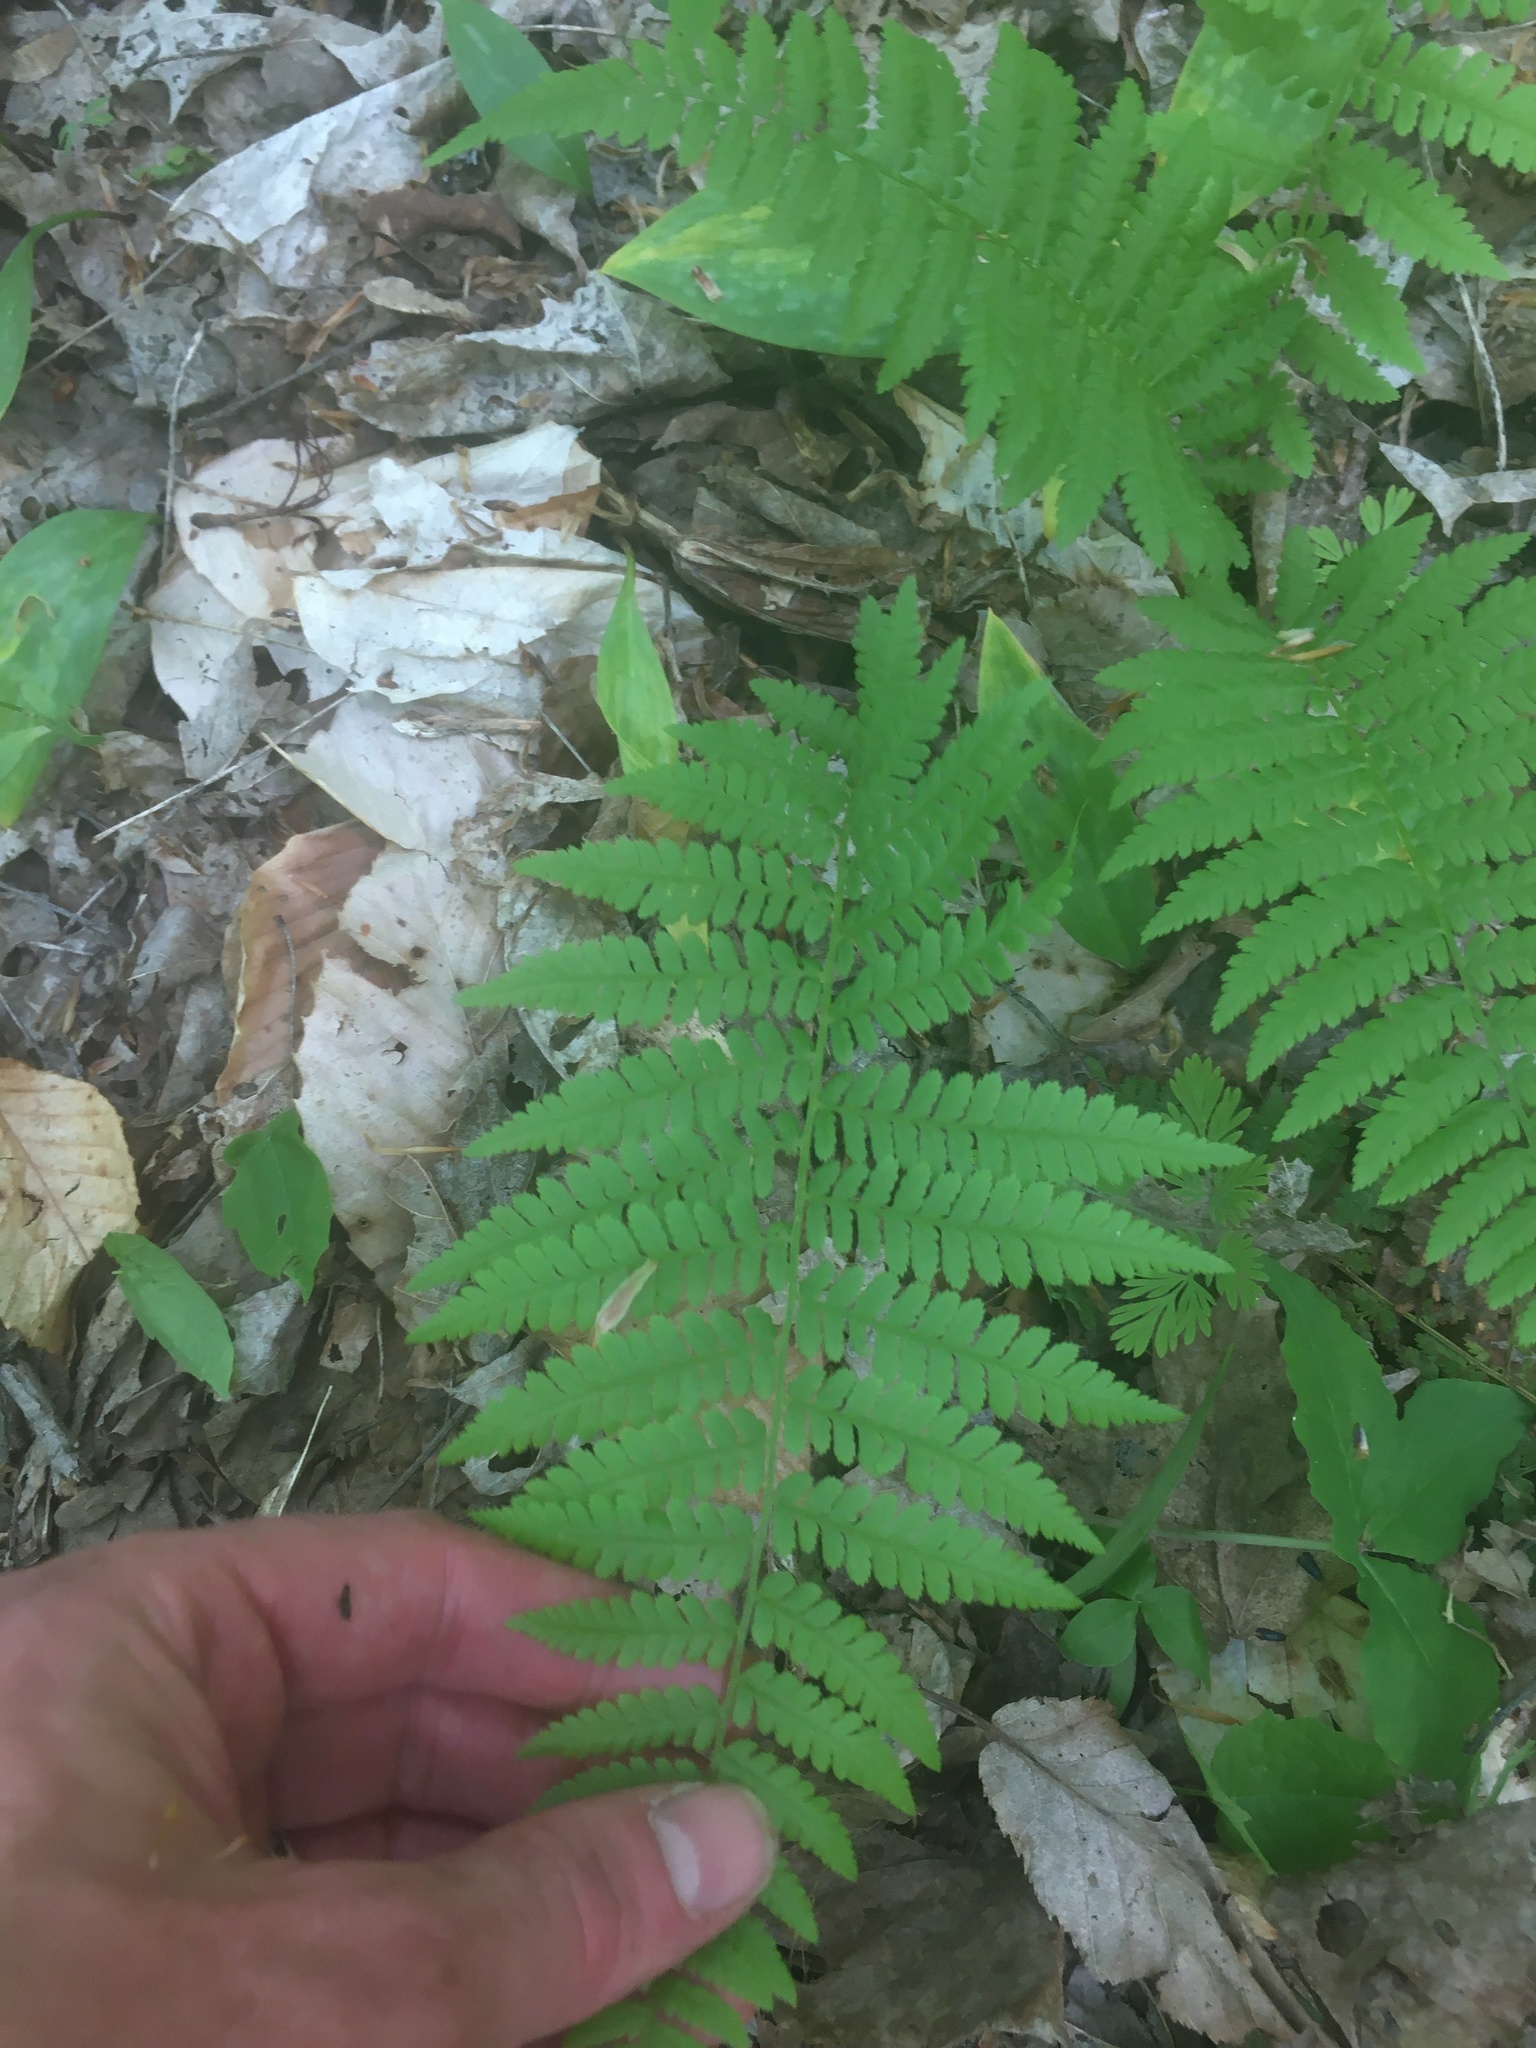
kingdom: Plantae
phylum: Tracheophyta
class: Polypodiopsida
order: Polypodiales
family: Thelypteridaceae
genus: Amauropelta
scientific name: Amauropelta noveboracensis
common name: New york fern
